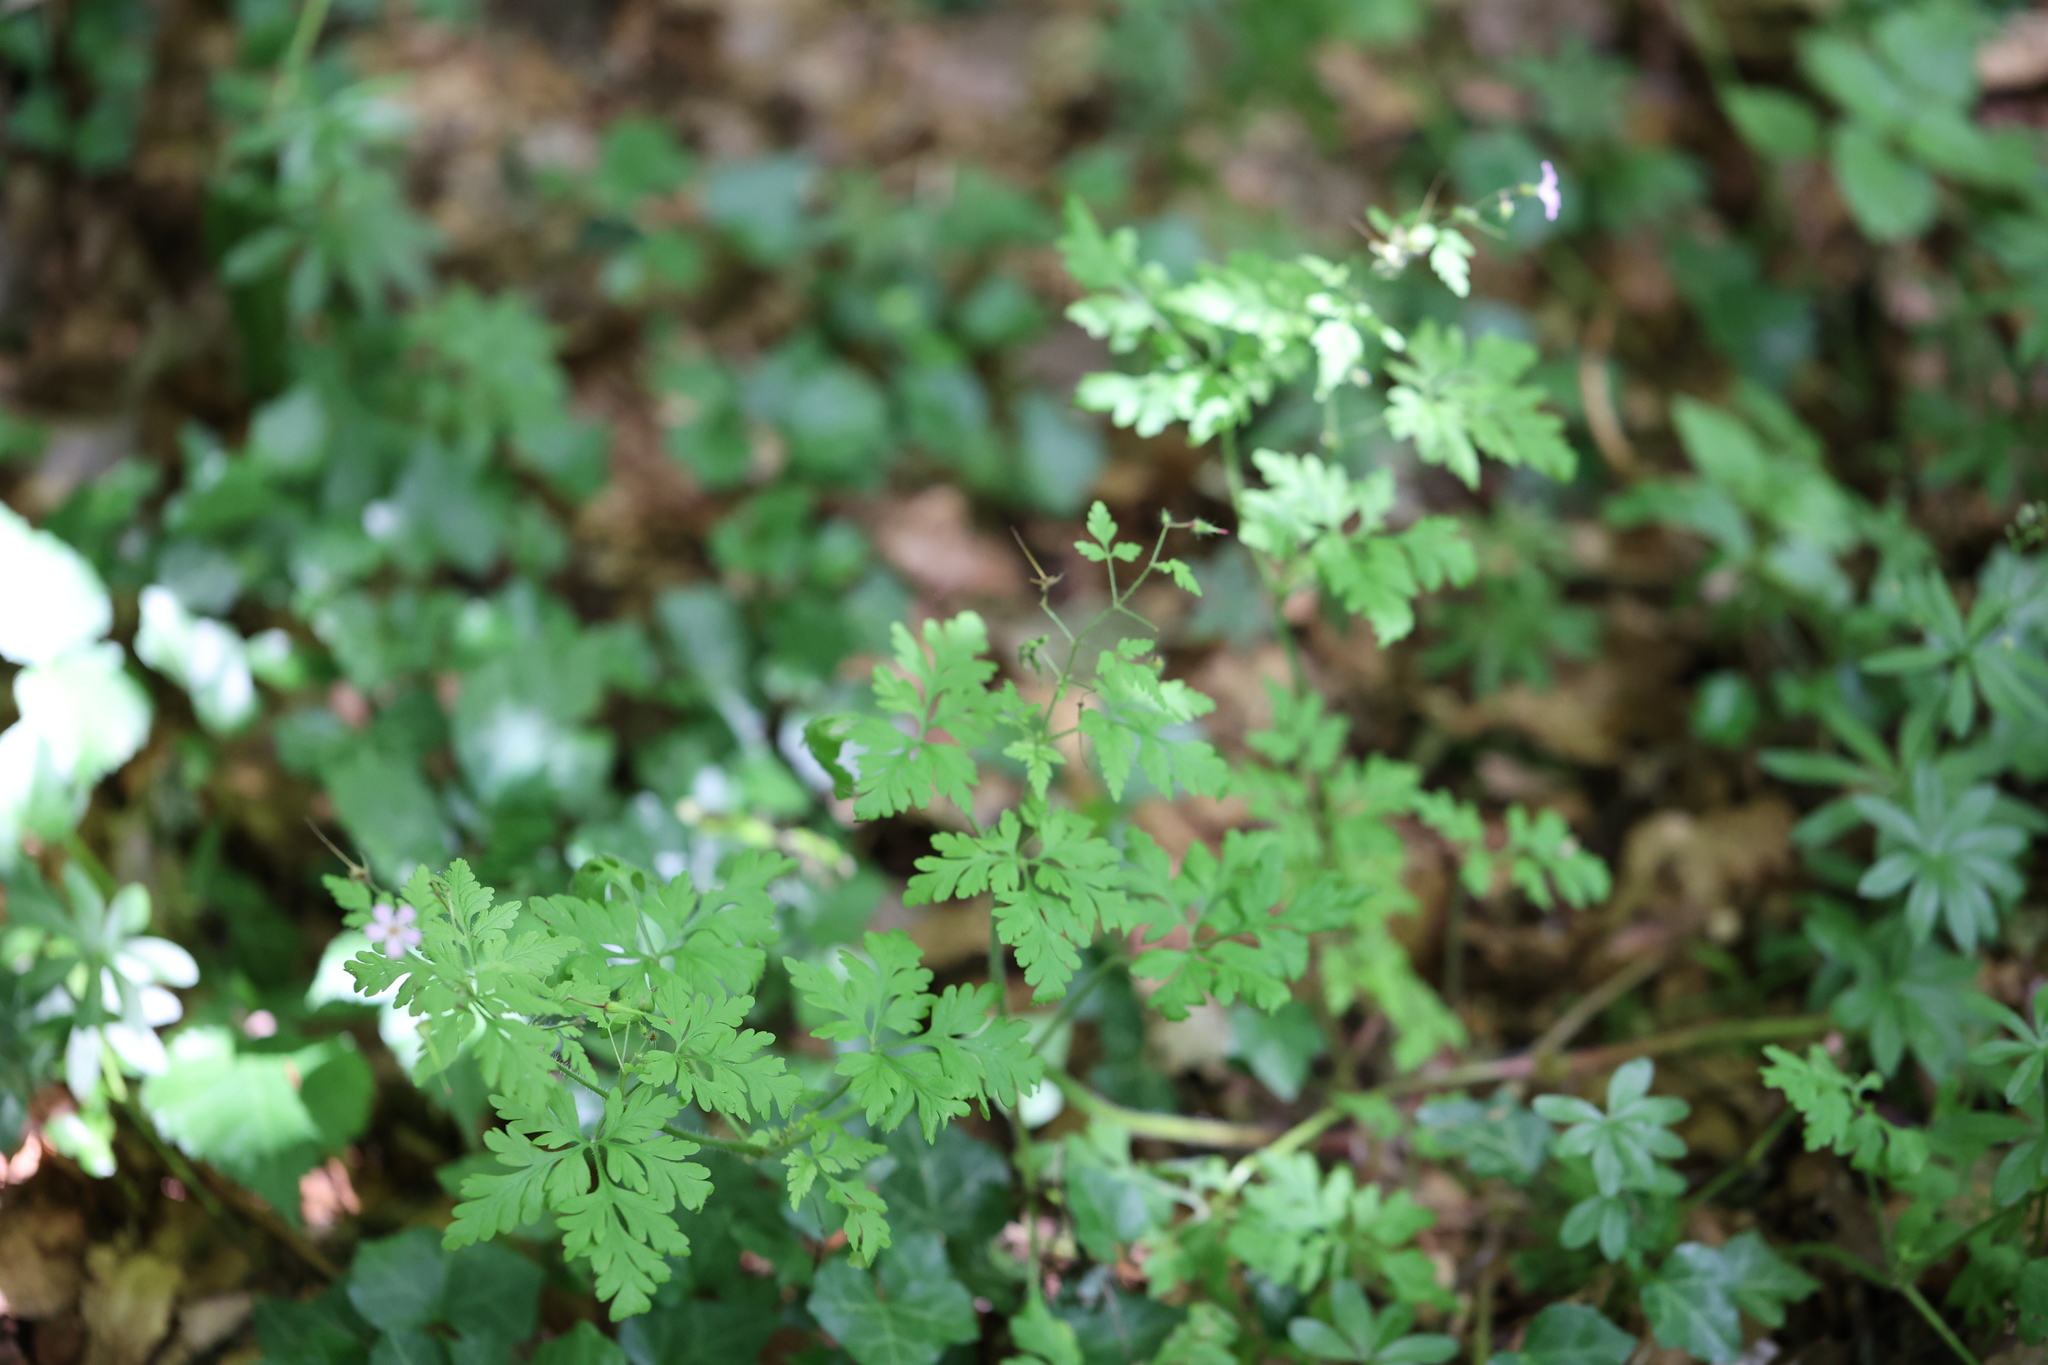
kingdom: Plantae
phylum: Tracheophyta
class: Magnoliopsida
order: Geraniales
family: Geraniaceae
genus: Geranium
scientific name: Geranium robertianum
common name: Herb-robert
